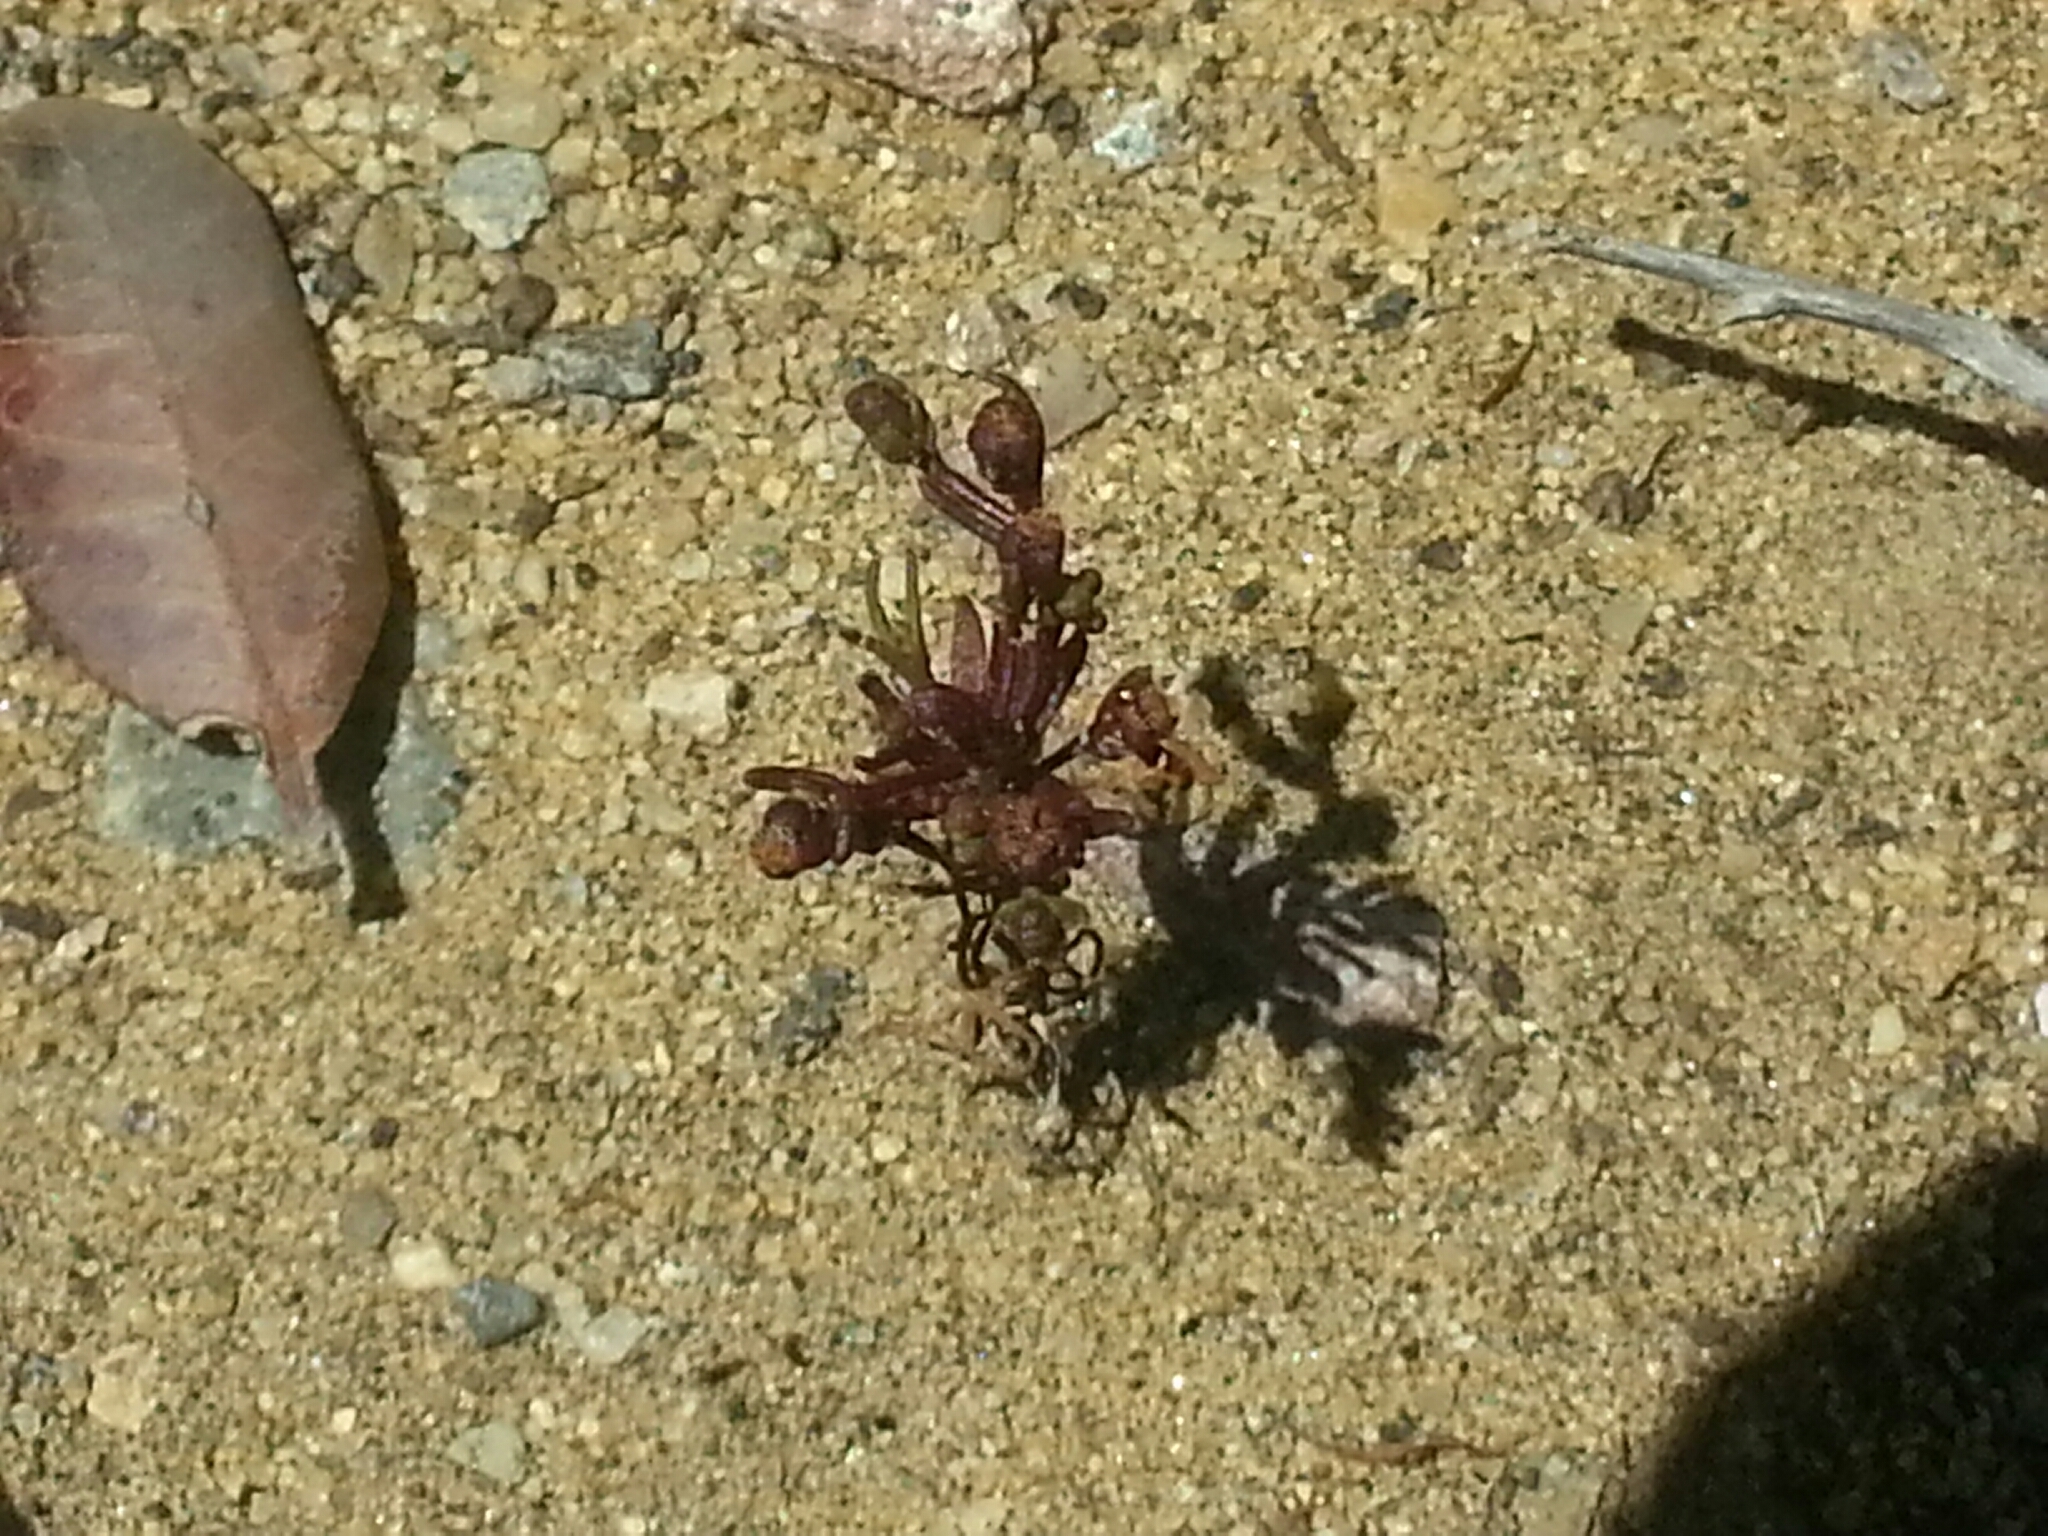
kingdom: Plantae
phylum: Tracheophyta
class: Magnoliopsida
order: Asterales
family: Asteraceae
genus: Amblyopappus
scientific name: Amblyopappus pusillus
